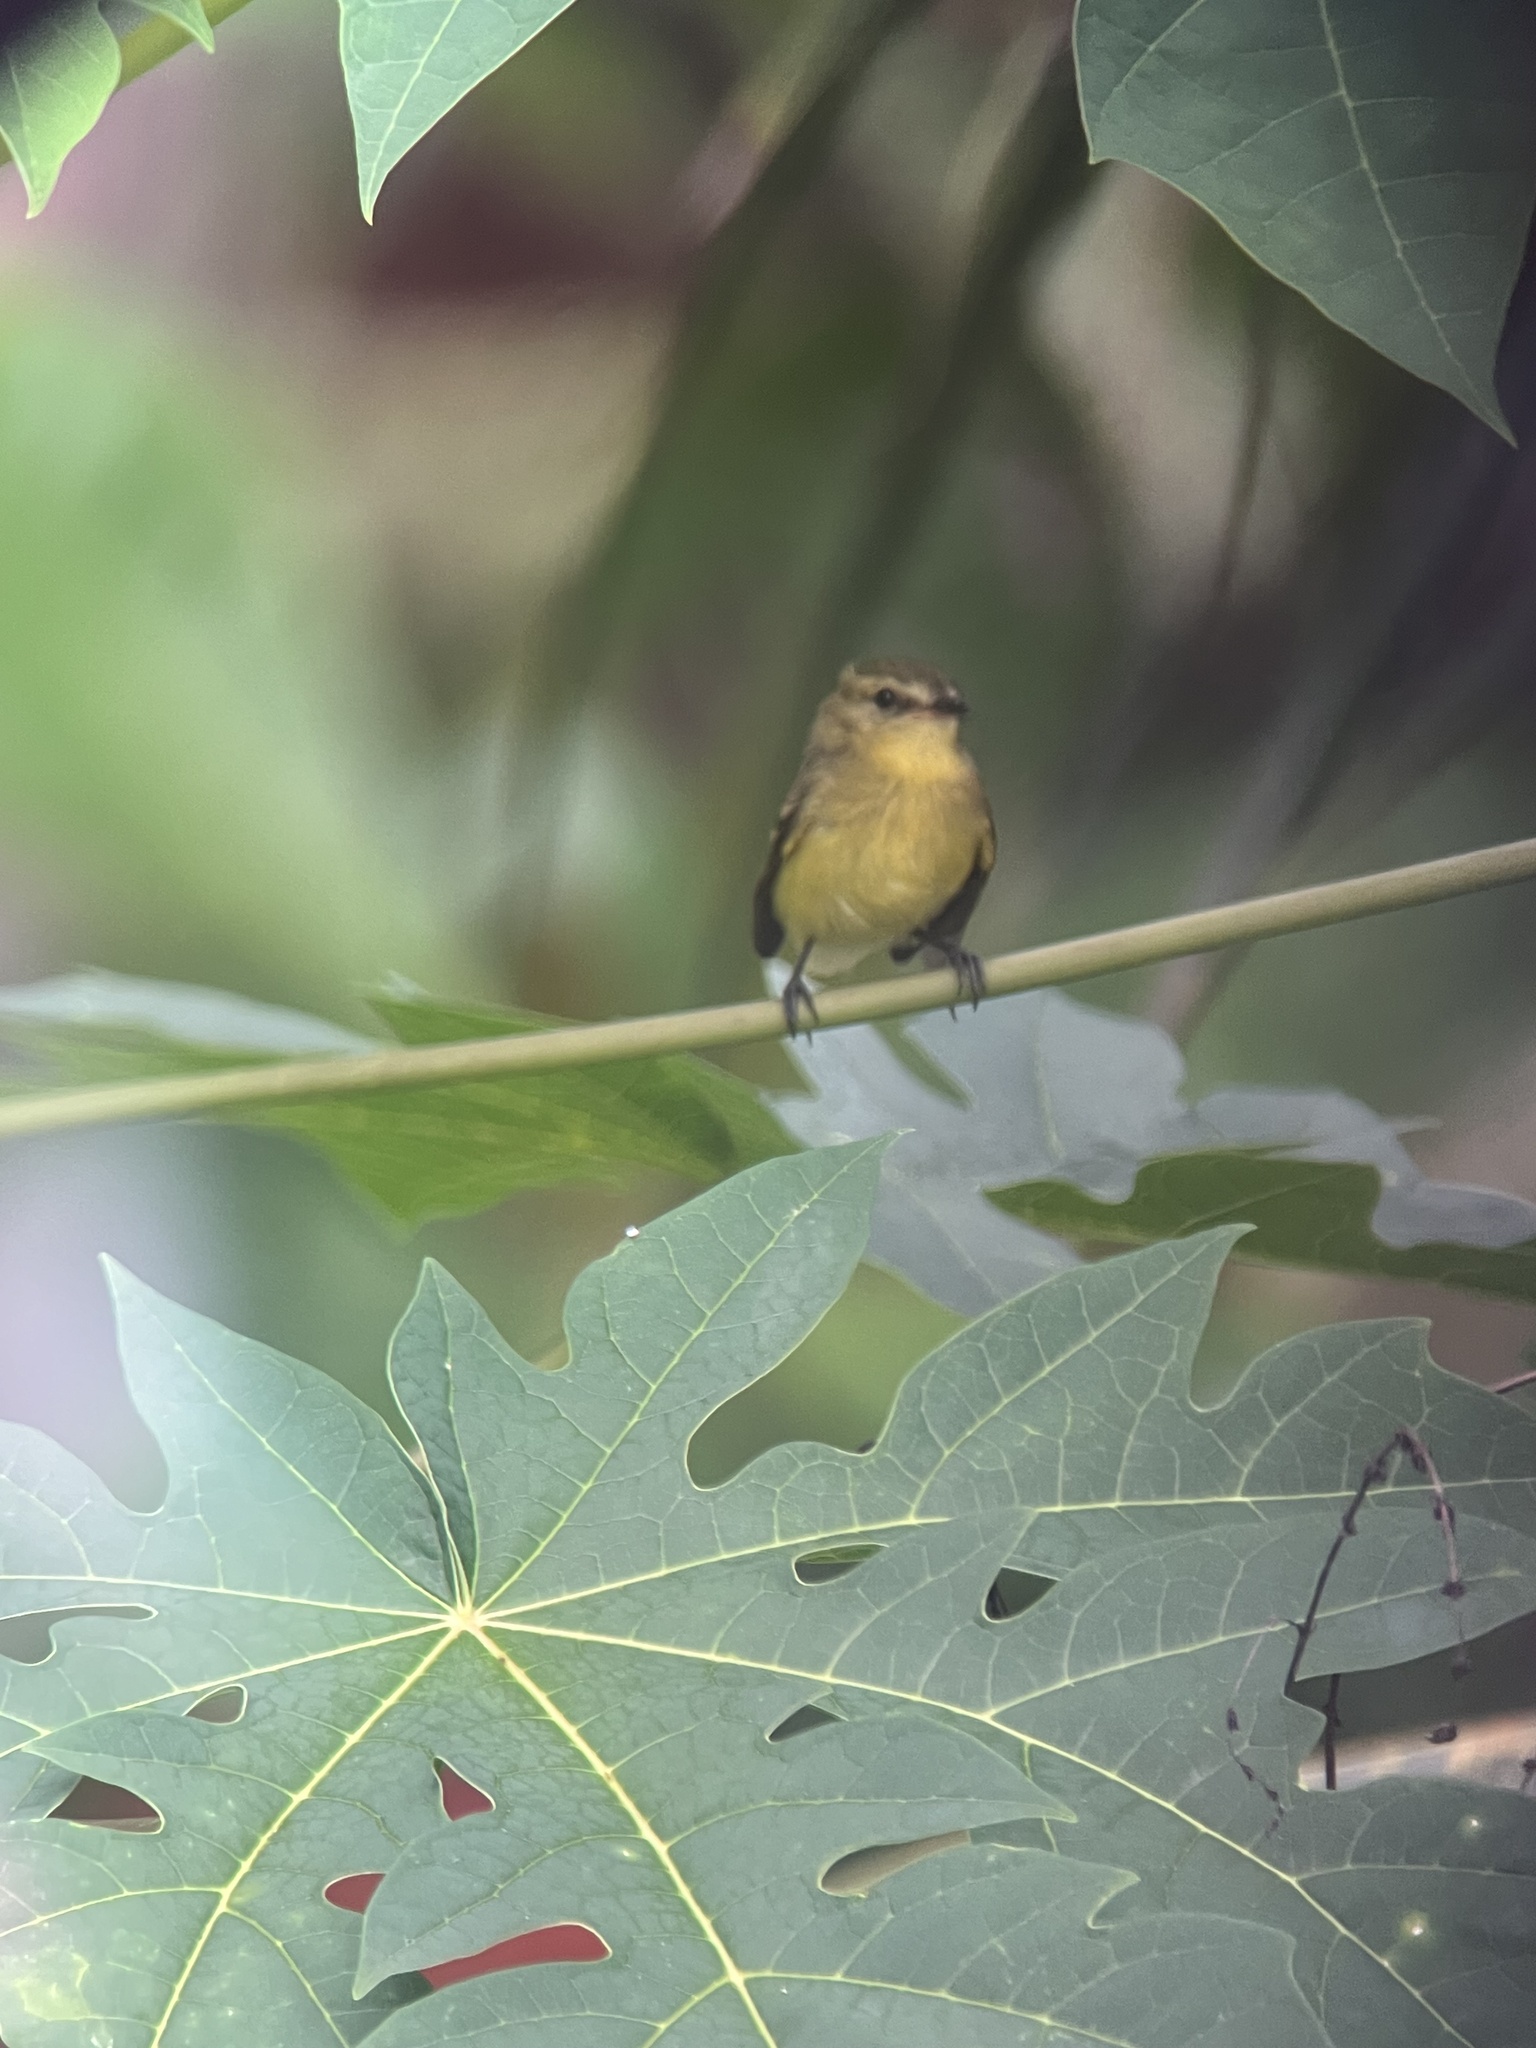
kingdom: Animalia
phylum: Chordata
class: Aves
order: Passeriformes
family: Tyrannidae
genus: Capsiempis
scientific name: Capsiempis flaveola
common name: Yellow tyrannulet
